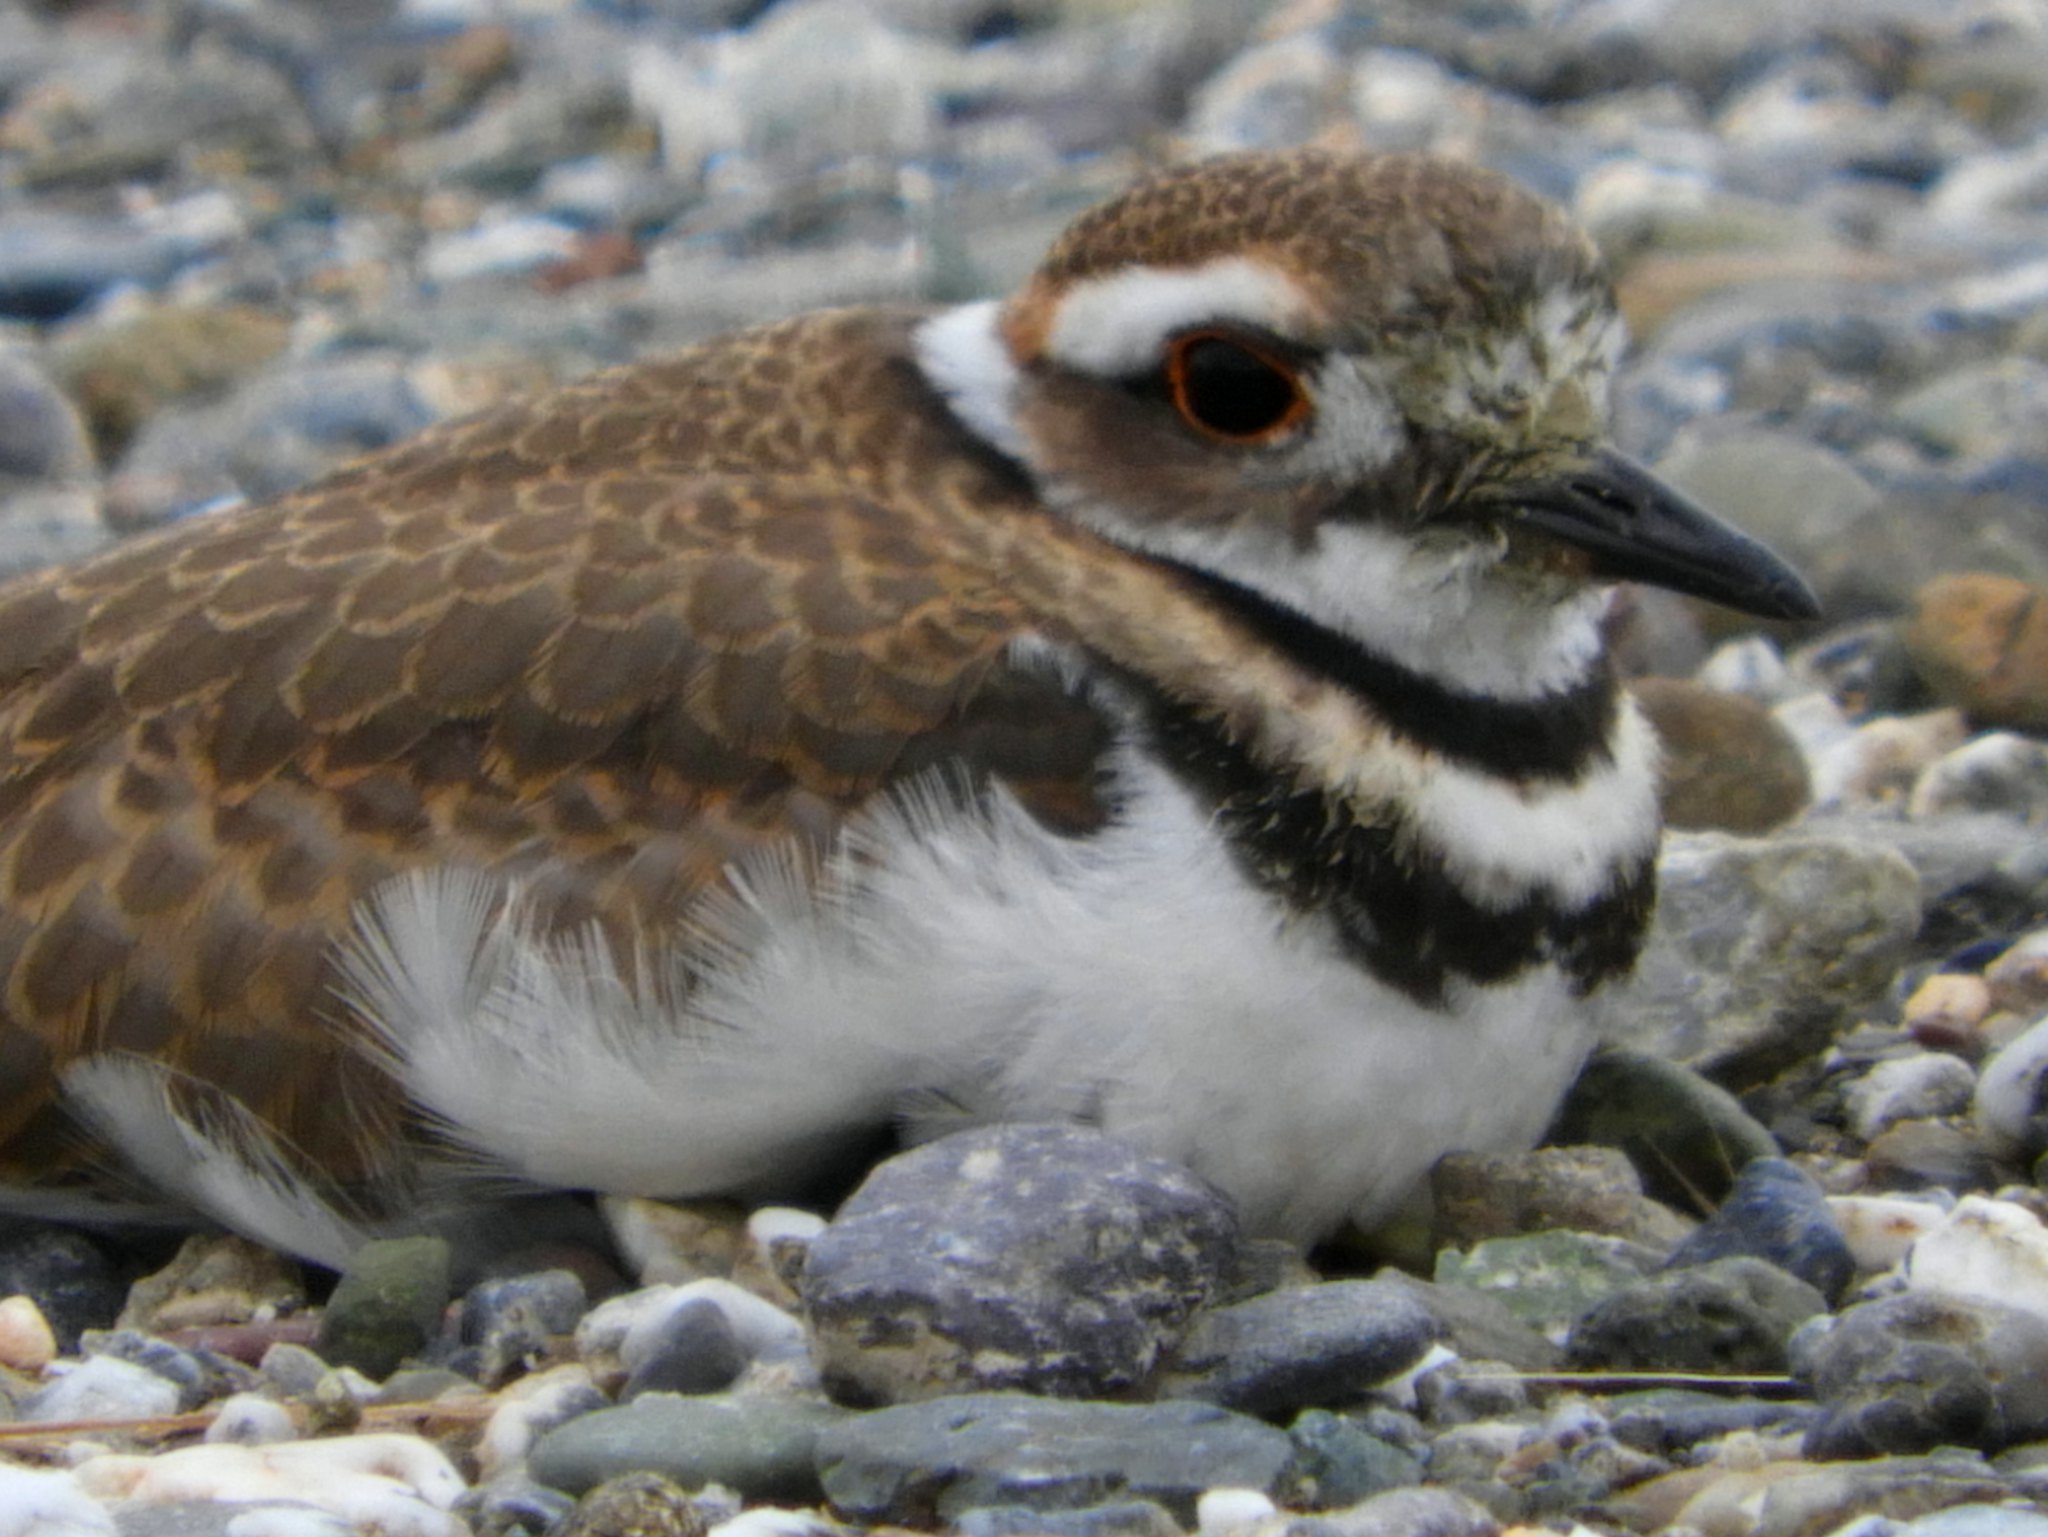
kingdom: Animalia
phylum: Chordata
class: Aves
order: Charadriiformes
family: Charadriidae
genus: Charadrius
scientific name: Charadrius vociferus
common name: Killdeer
